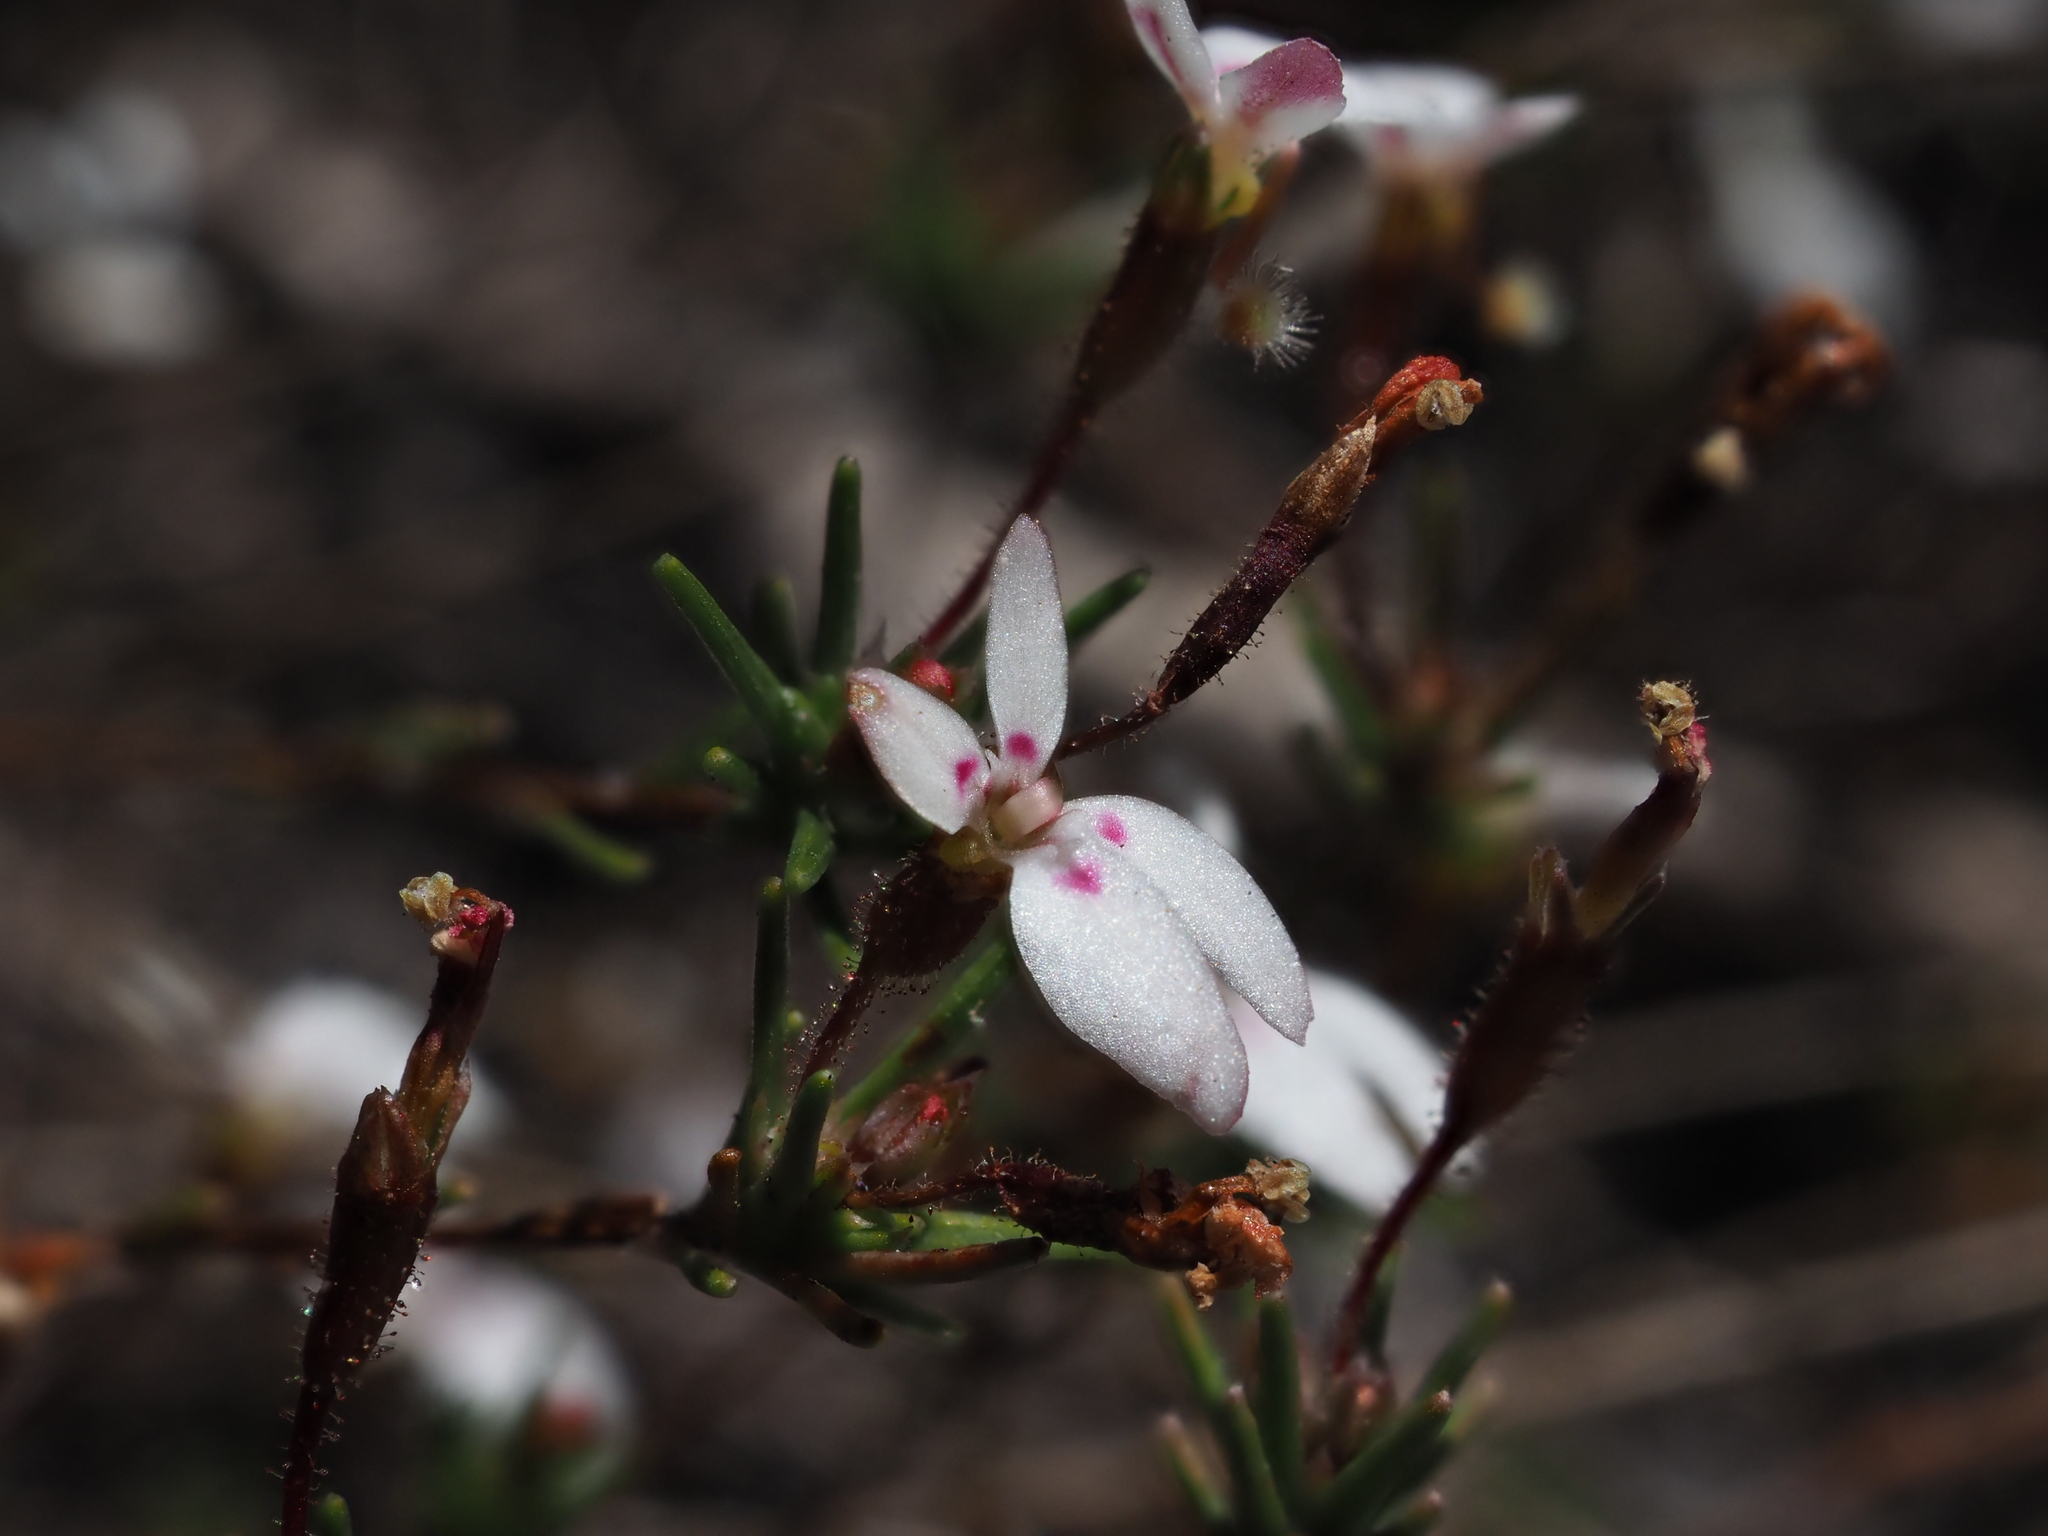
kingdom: Plantae
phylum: Tracheophyta
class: Magnoliopsida
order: Asterales
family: Stylidiaceae
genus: Stylidium
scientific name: Stylidium repens
